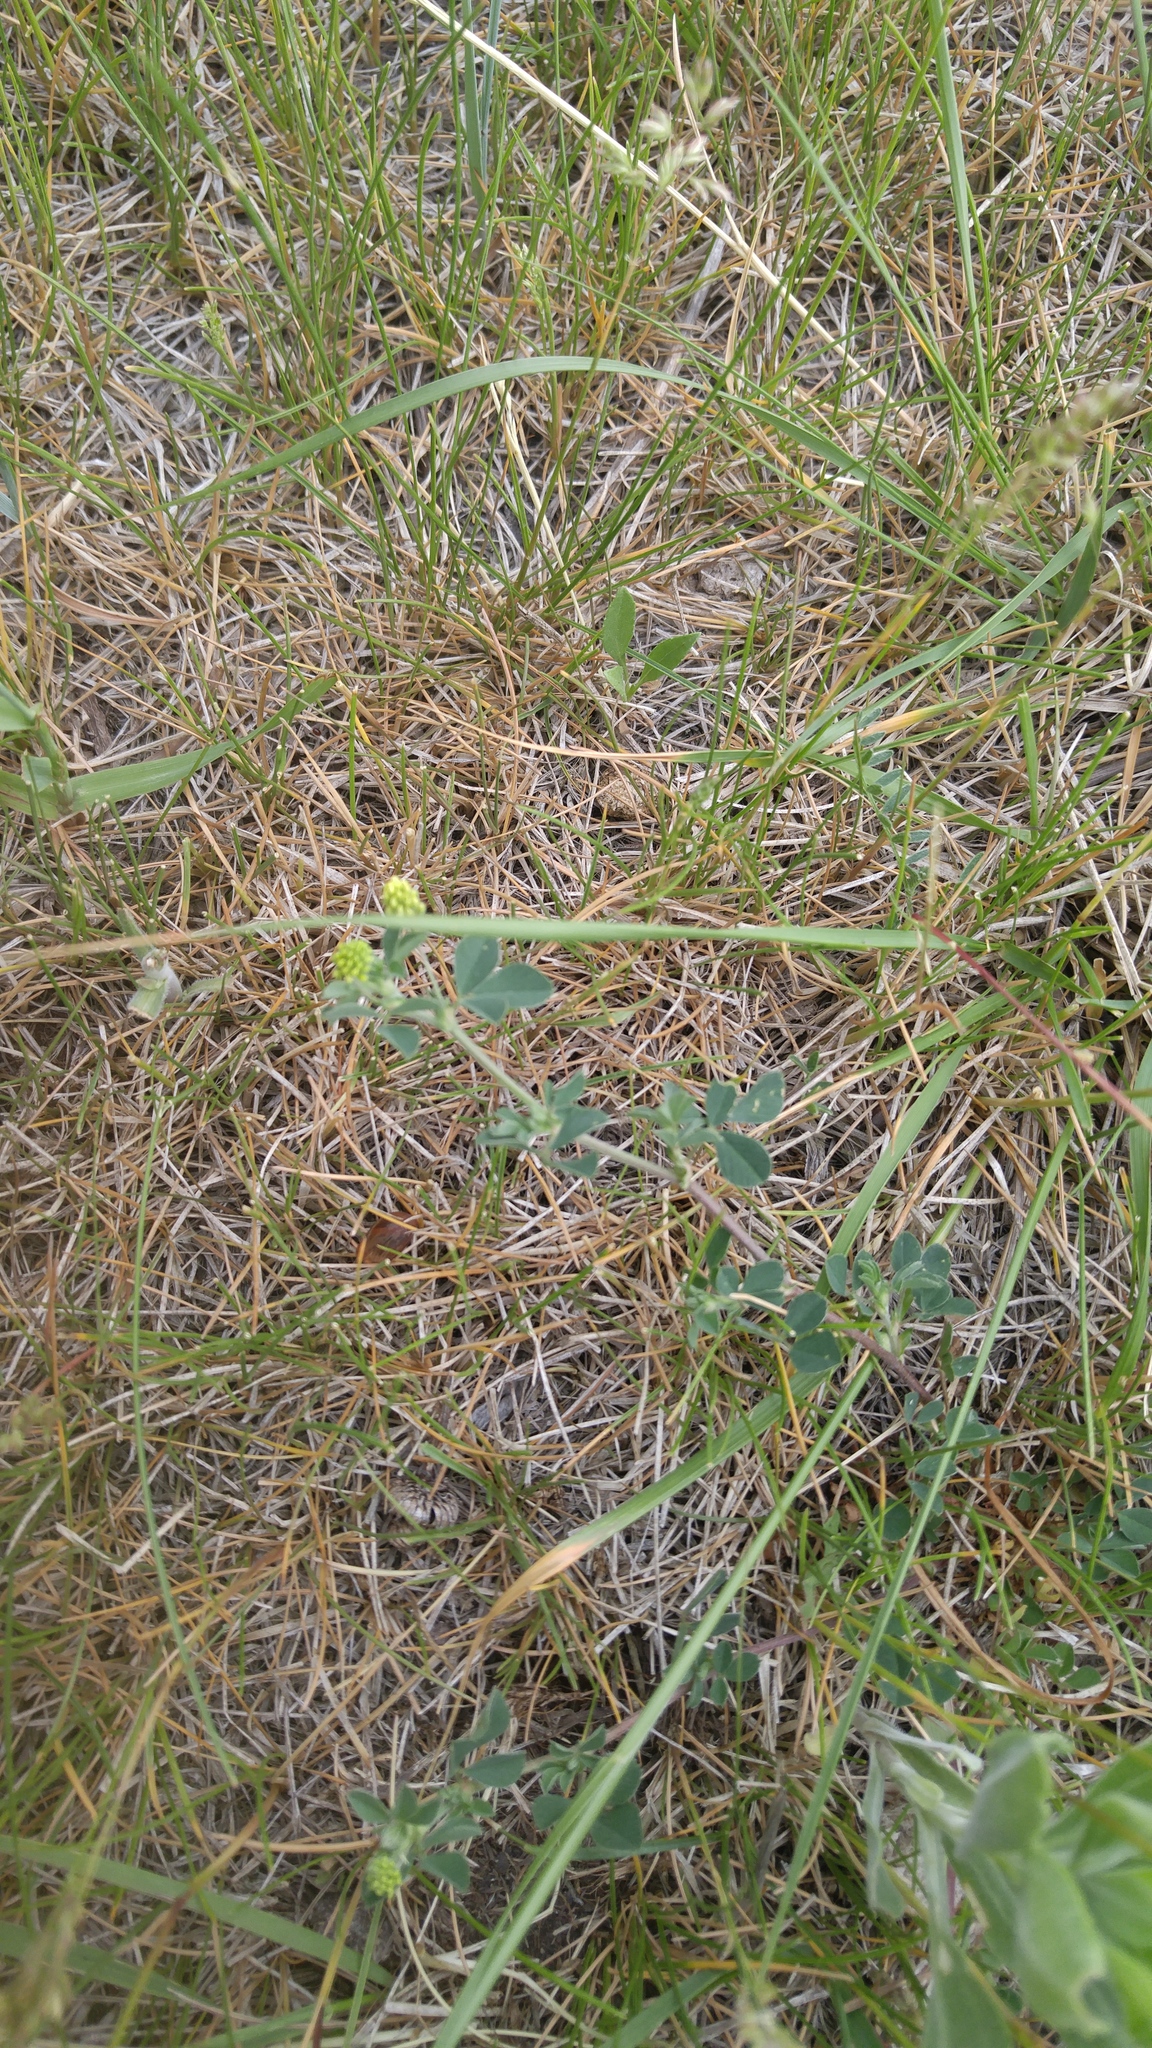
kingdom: Plantae
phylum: Tracheophyta
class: Magnoliopsida
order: Fabales
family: Fabaceae
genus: Medicago
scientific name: Medicago lupulina
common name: Black medick
